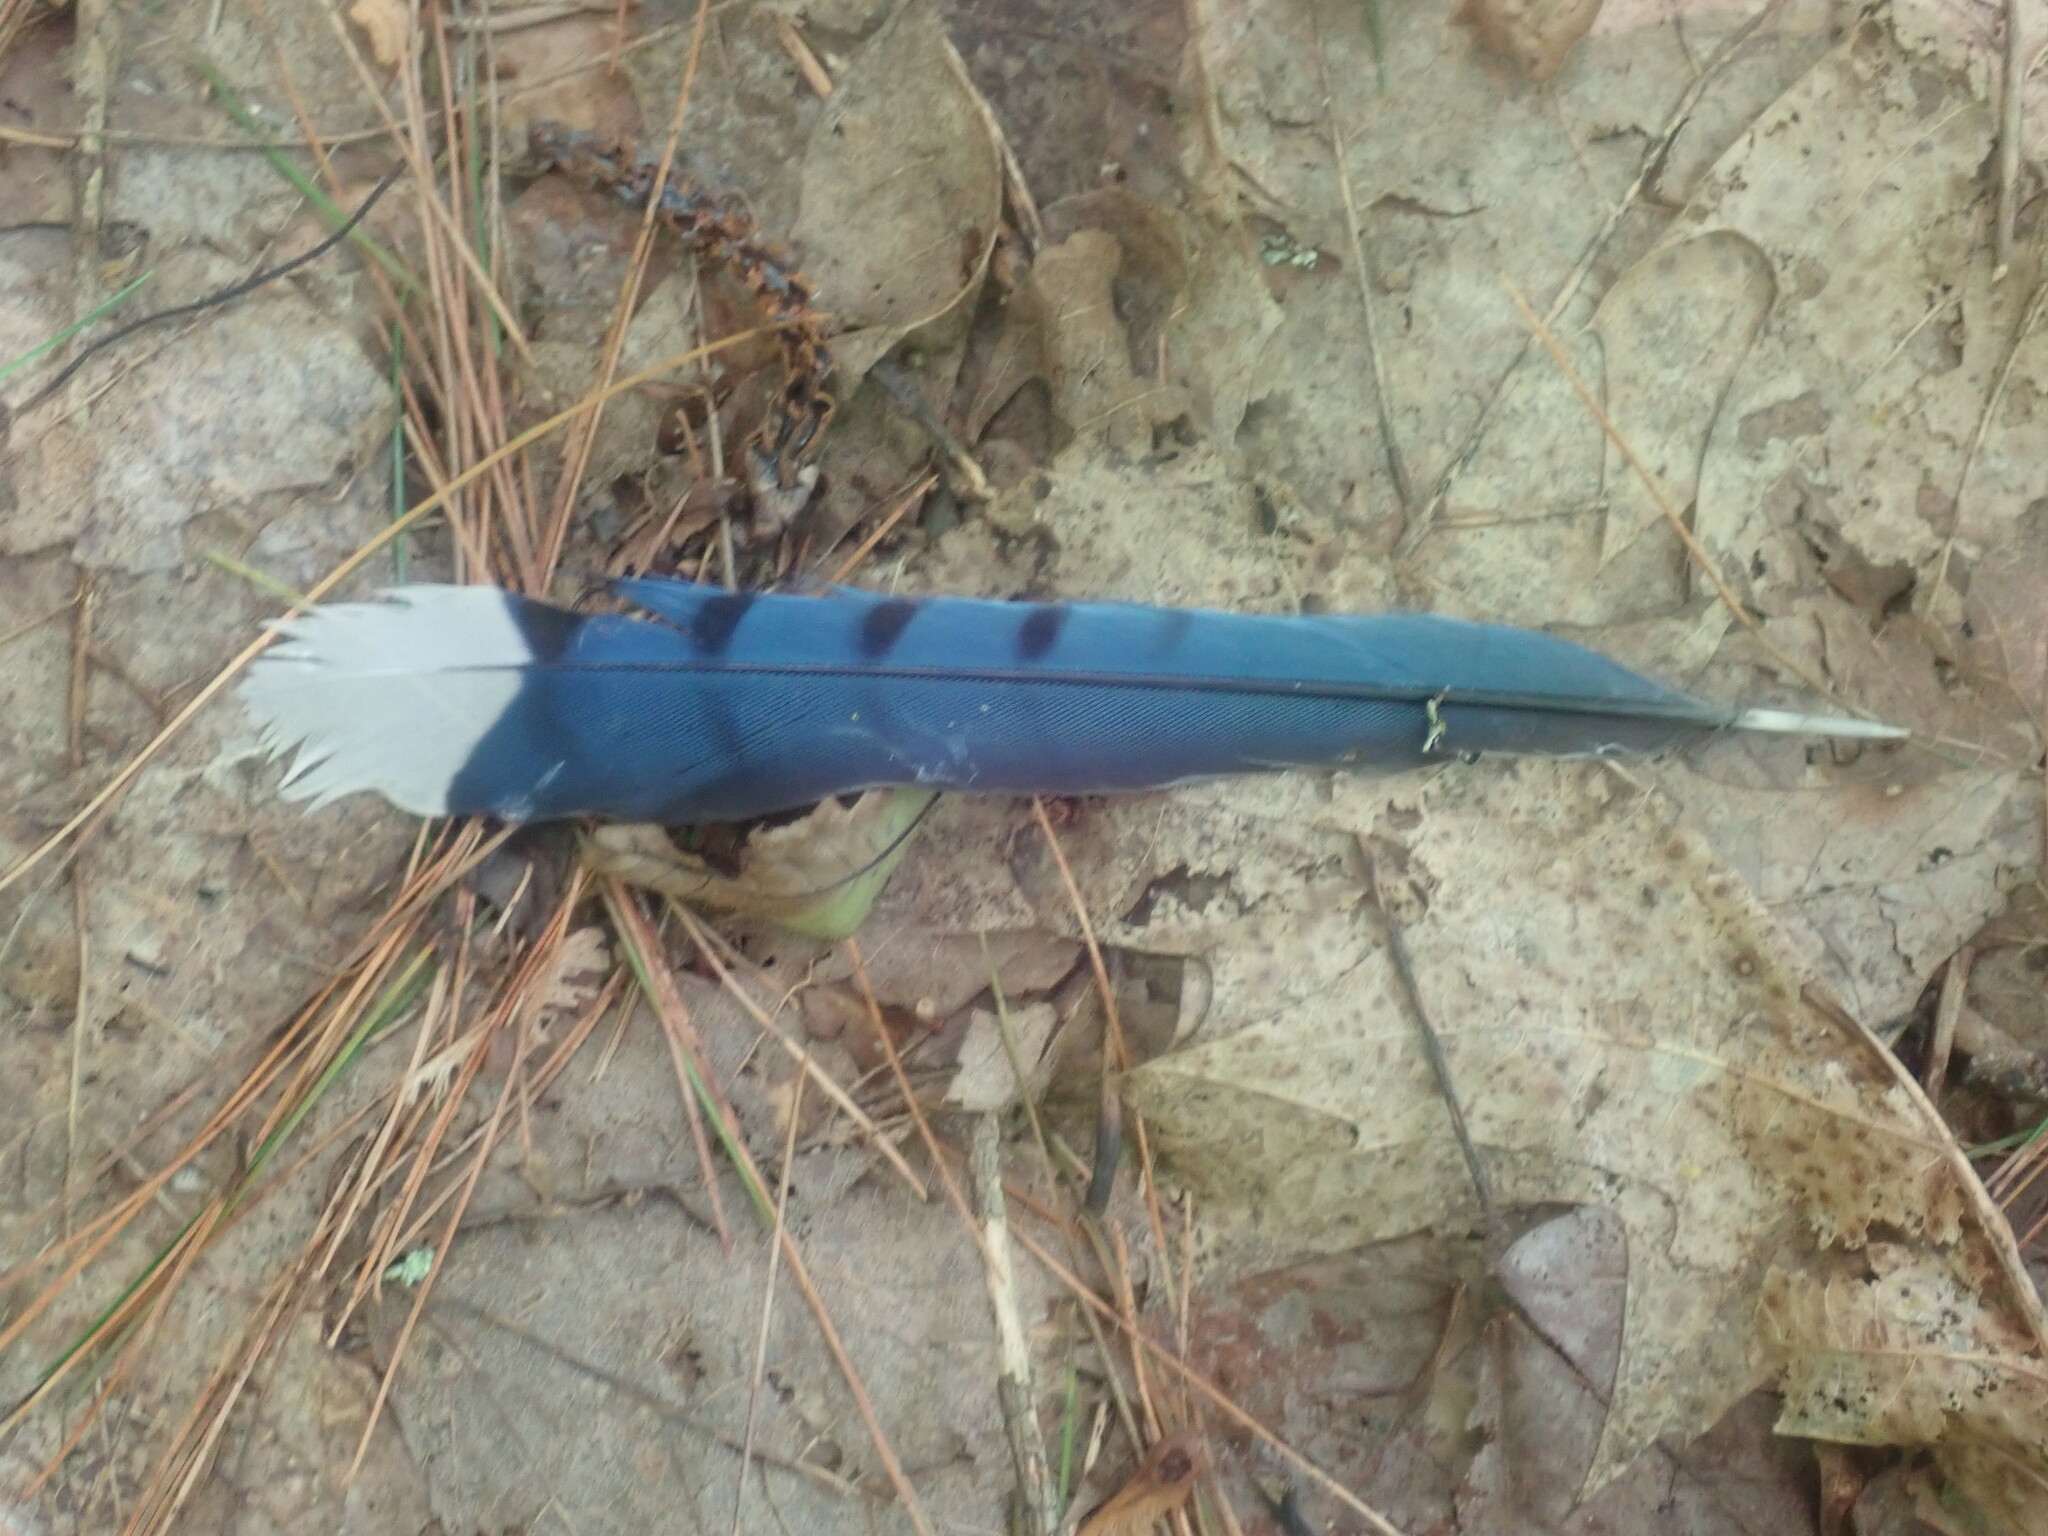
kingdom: Animalia
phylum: Chordata
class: Aves
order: Passeriformes
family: Corvidae
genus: Cyanocitta
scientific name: Cyanocitta cristata
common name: Blue jay
